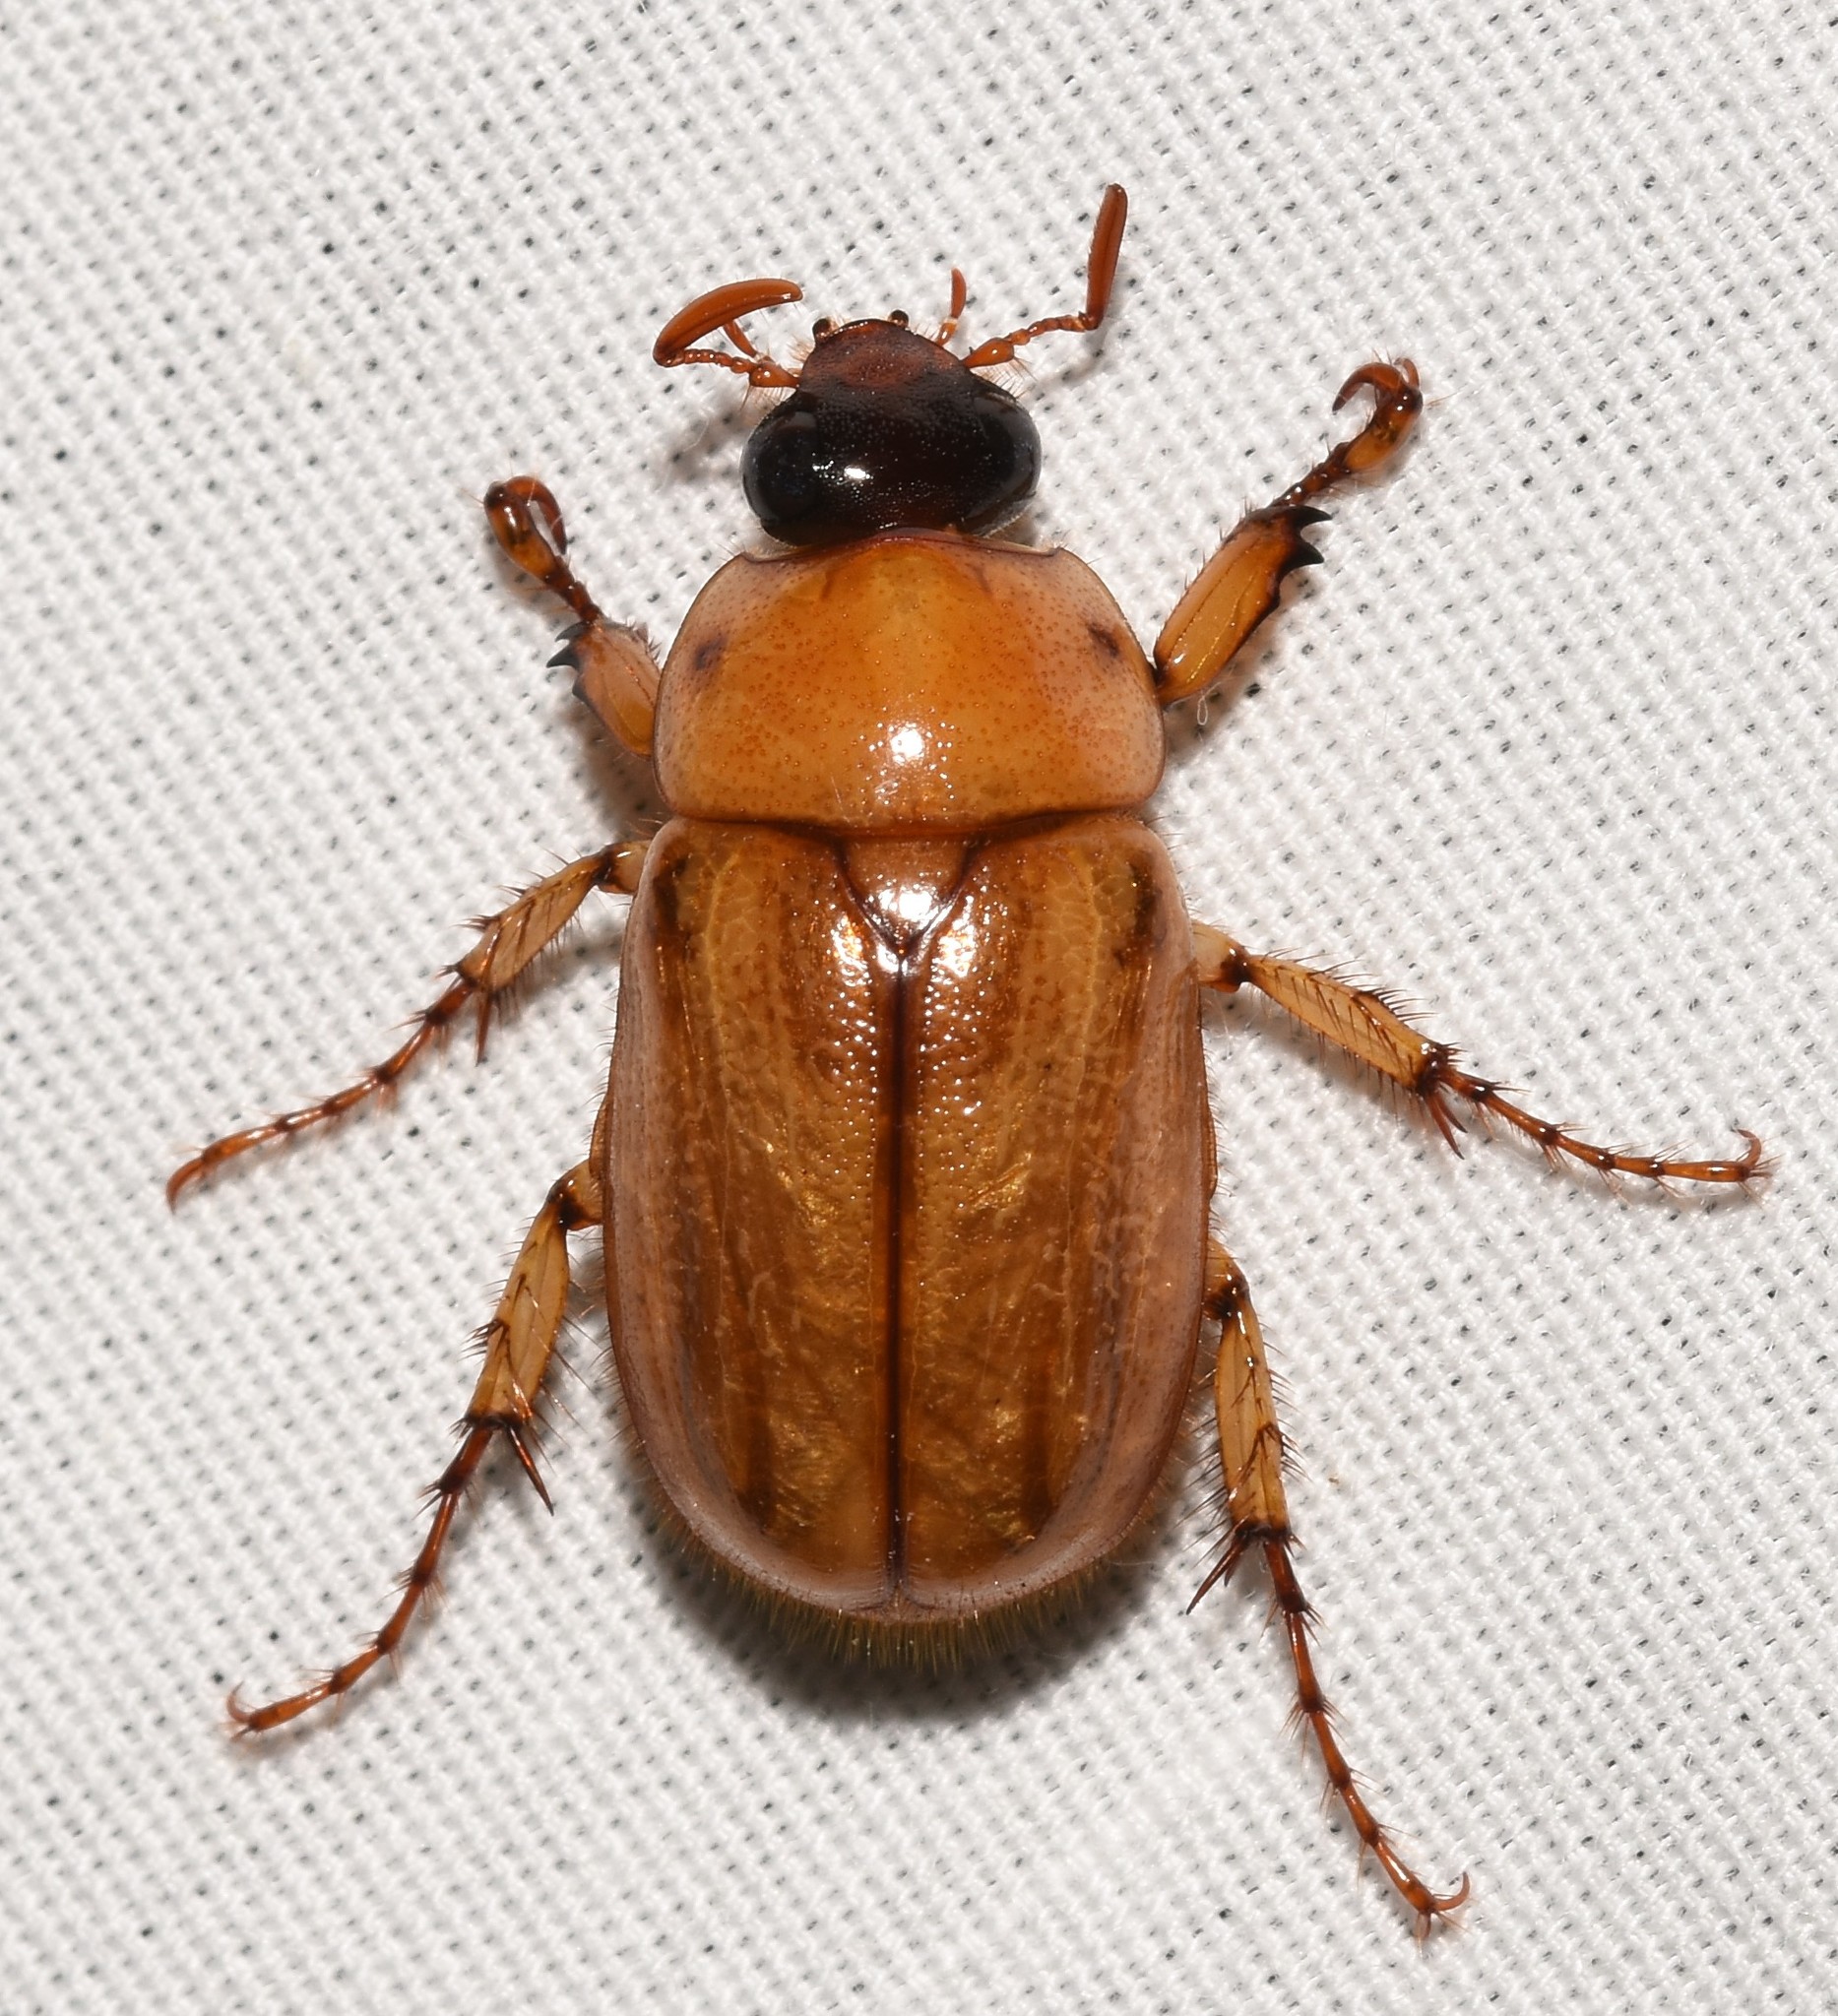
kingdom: Animalia
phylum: Arthropoda
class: Insecta
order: Coleoptera
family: Scarabaeidae
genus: Cyclocephala
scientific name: Cyclocephala lurida
